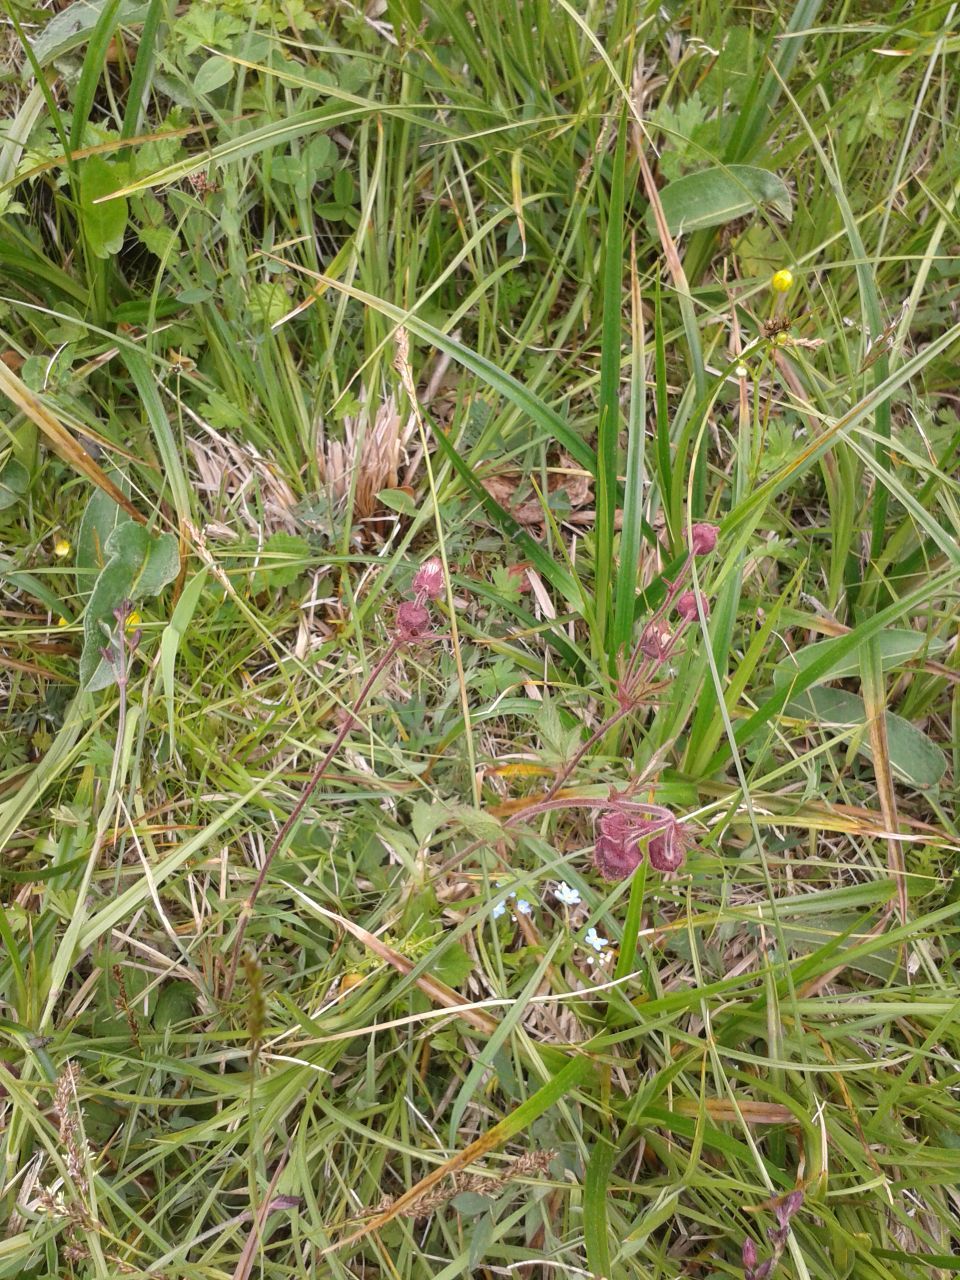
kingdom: Plantae
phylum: Tracheophyta
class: Magnoliopsida
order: Rosales
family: Rosaceae
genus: Geum
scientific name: Geum rivale
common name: Water avens
